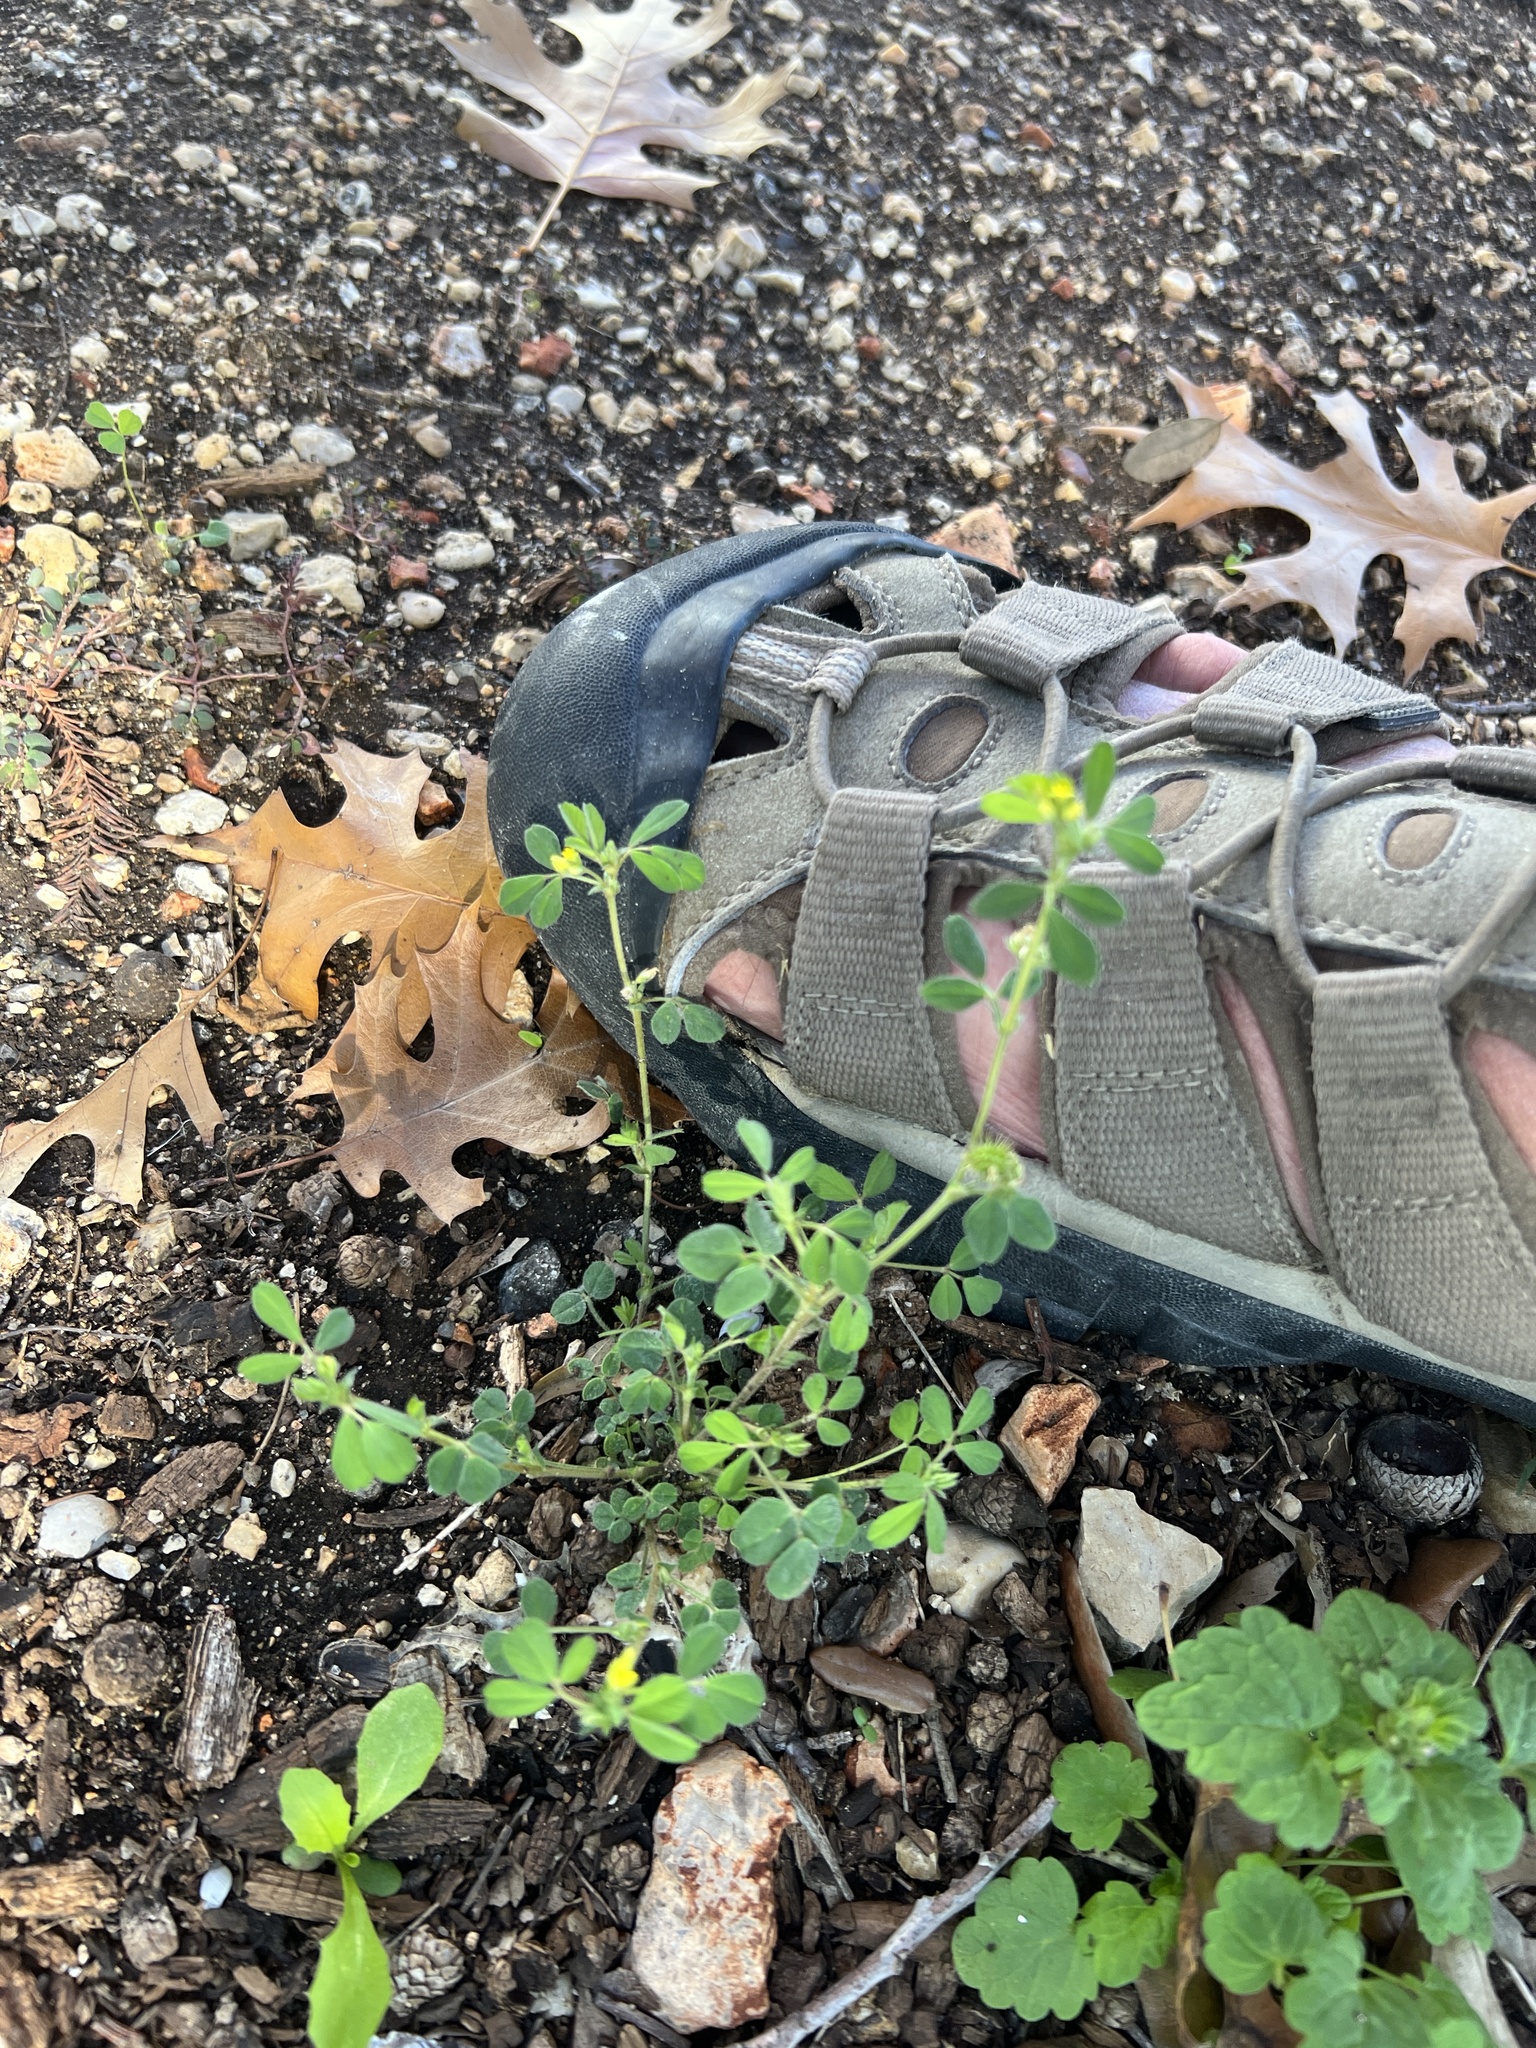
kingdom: Plantae
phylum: Tracheophyta
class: Magnoliopsida
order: Fabales
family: Fabaceae
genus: Medicago
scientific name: Medicago minima
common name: Little bur-clover
